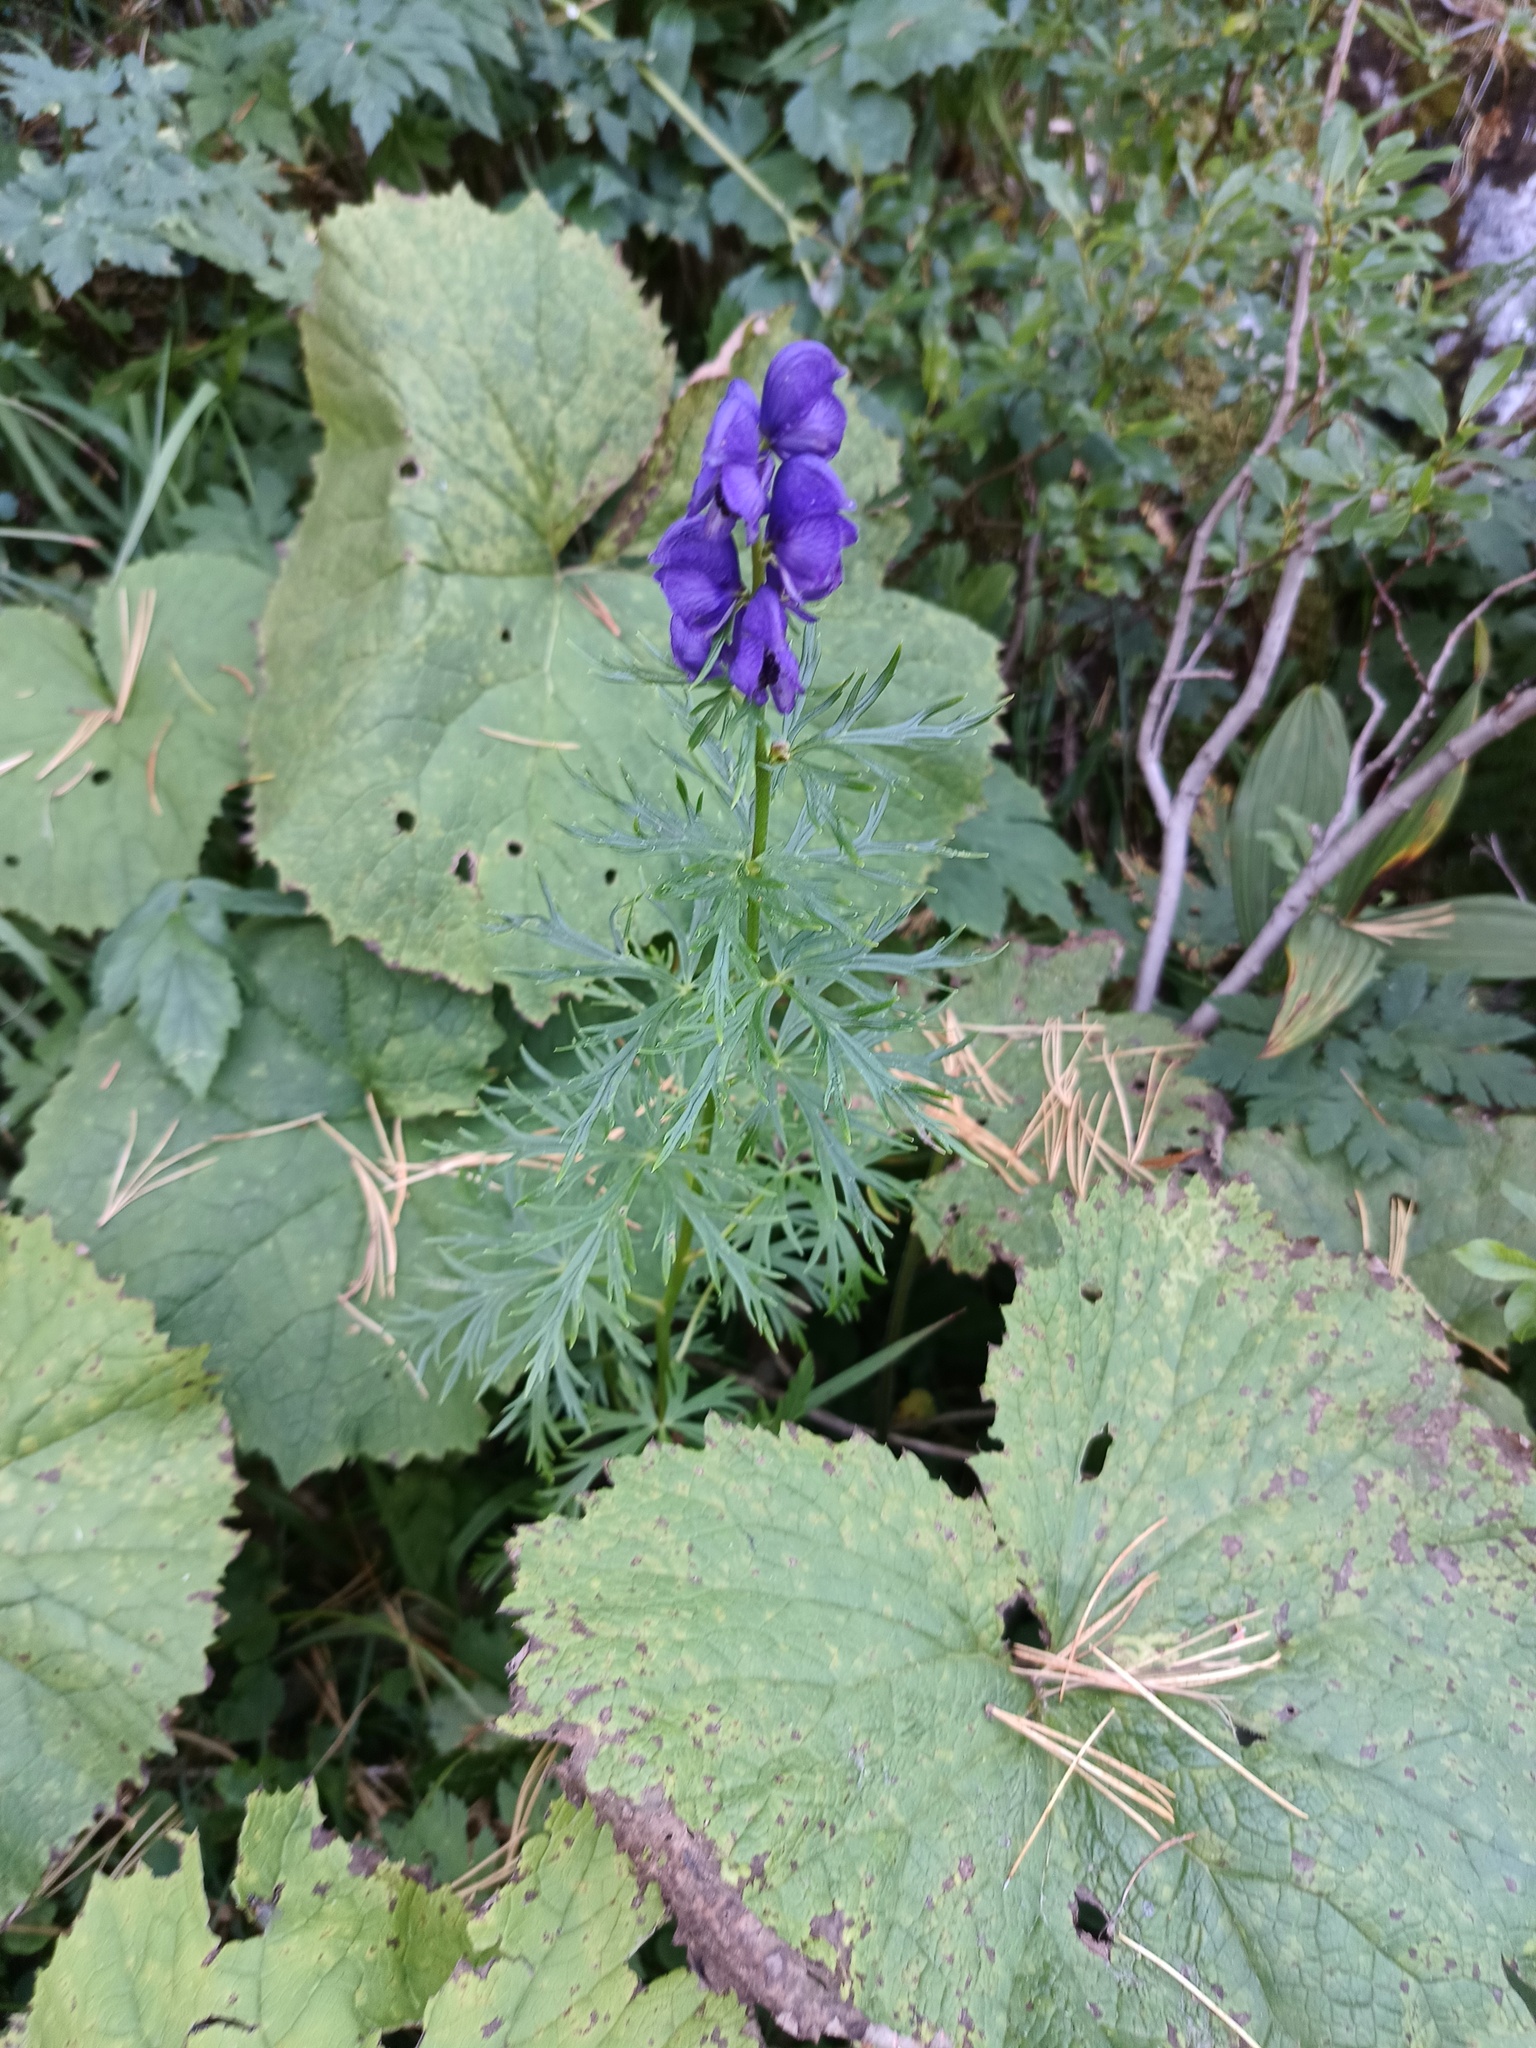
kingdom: Plantae
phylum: Tracheophyta
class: Magnoliopsida
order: Ranunculales
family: Ranunculaceae
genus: Aconitum
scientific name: Aconitum tauricum
